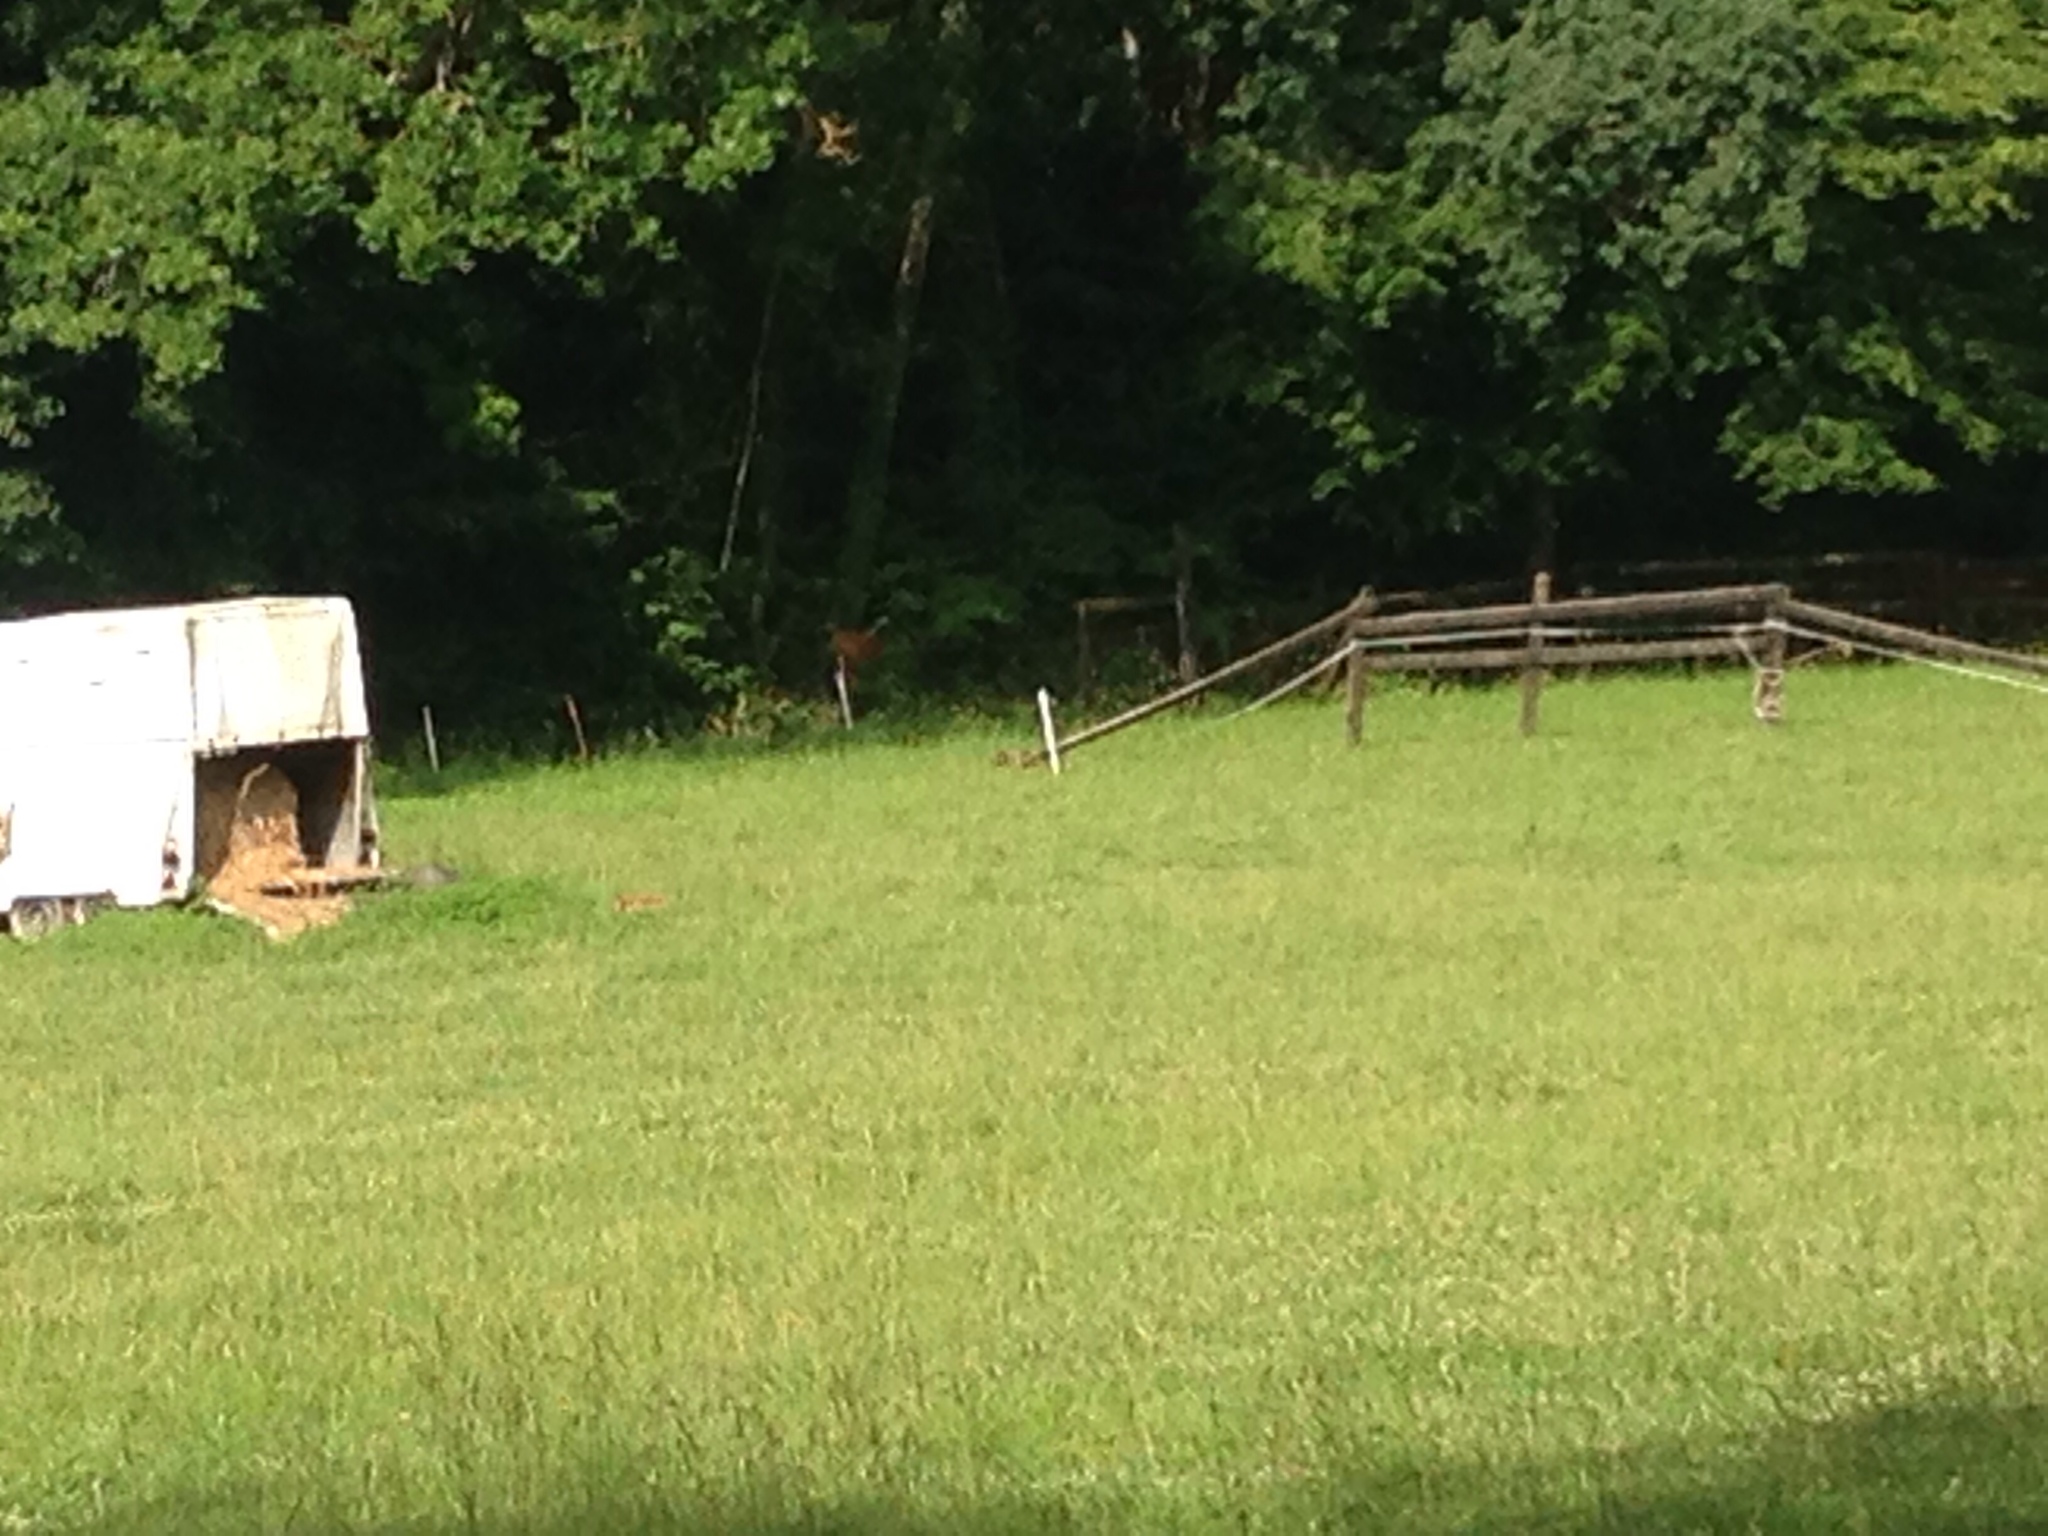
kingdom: Animalia
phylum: Chordata
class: Mammalia
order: Carnivora
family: Canidae
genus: Vulpes
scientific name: Vulpes vulpes
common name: Red fox
